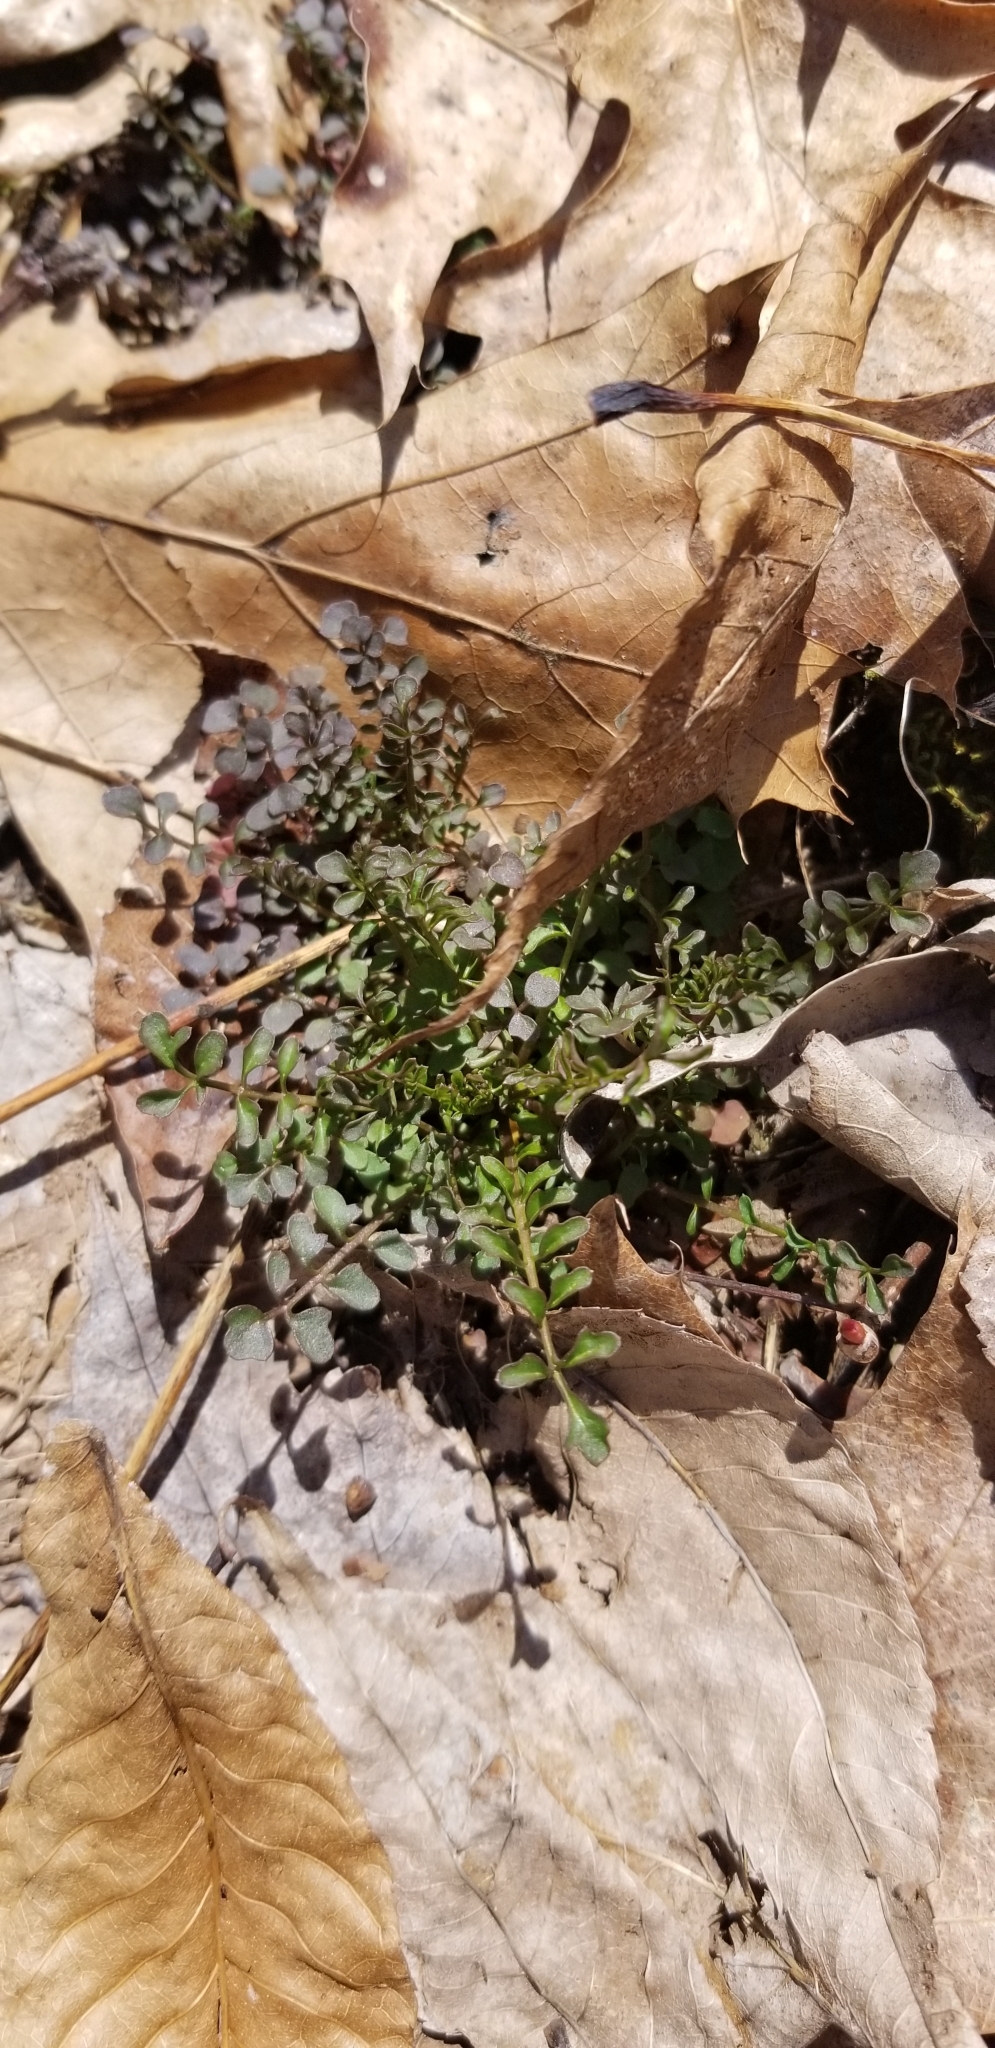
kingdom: Plantae
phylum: Tracheophyta
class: Magnoliopsida
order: Brassicales
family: Brassicaceae
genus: Cardamine
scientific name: Cardamine impatiens
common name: Narrow-leaved bitter-cress
